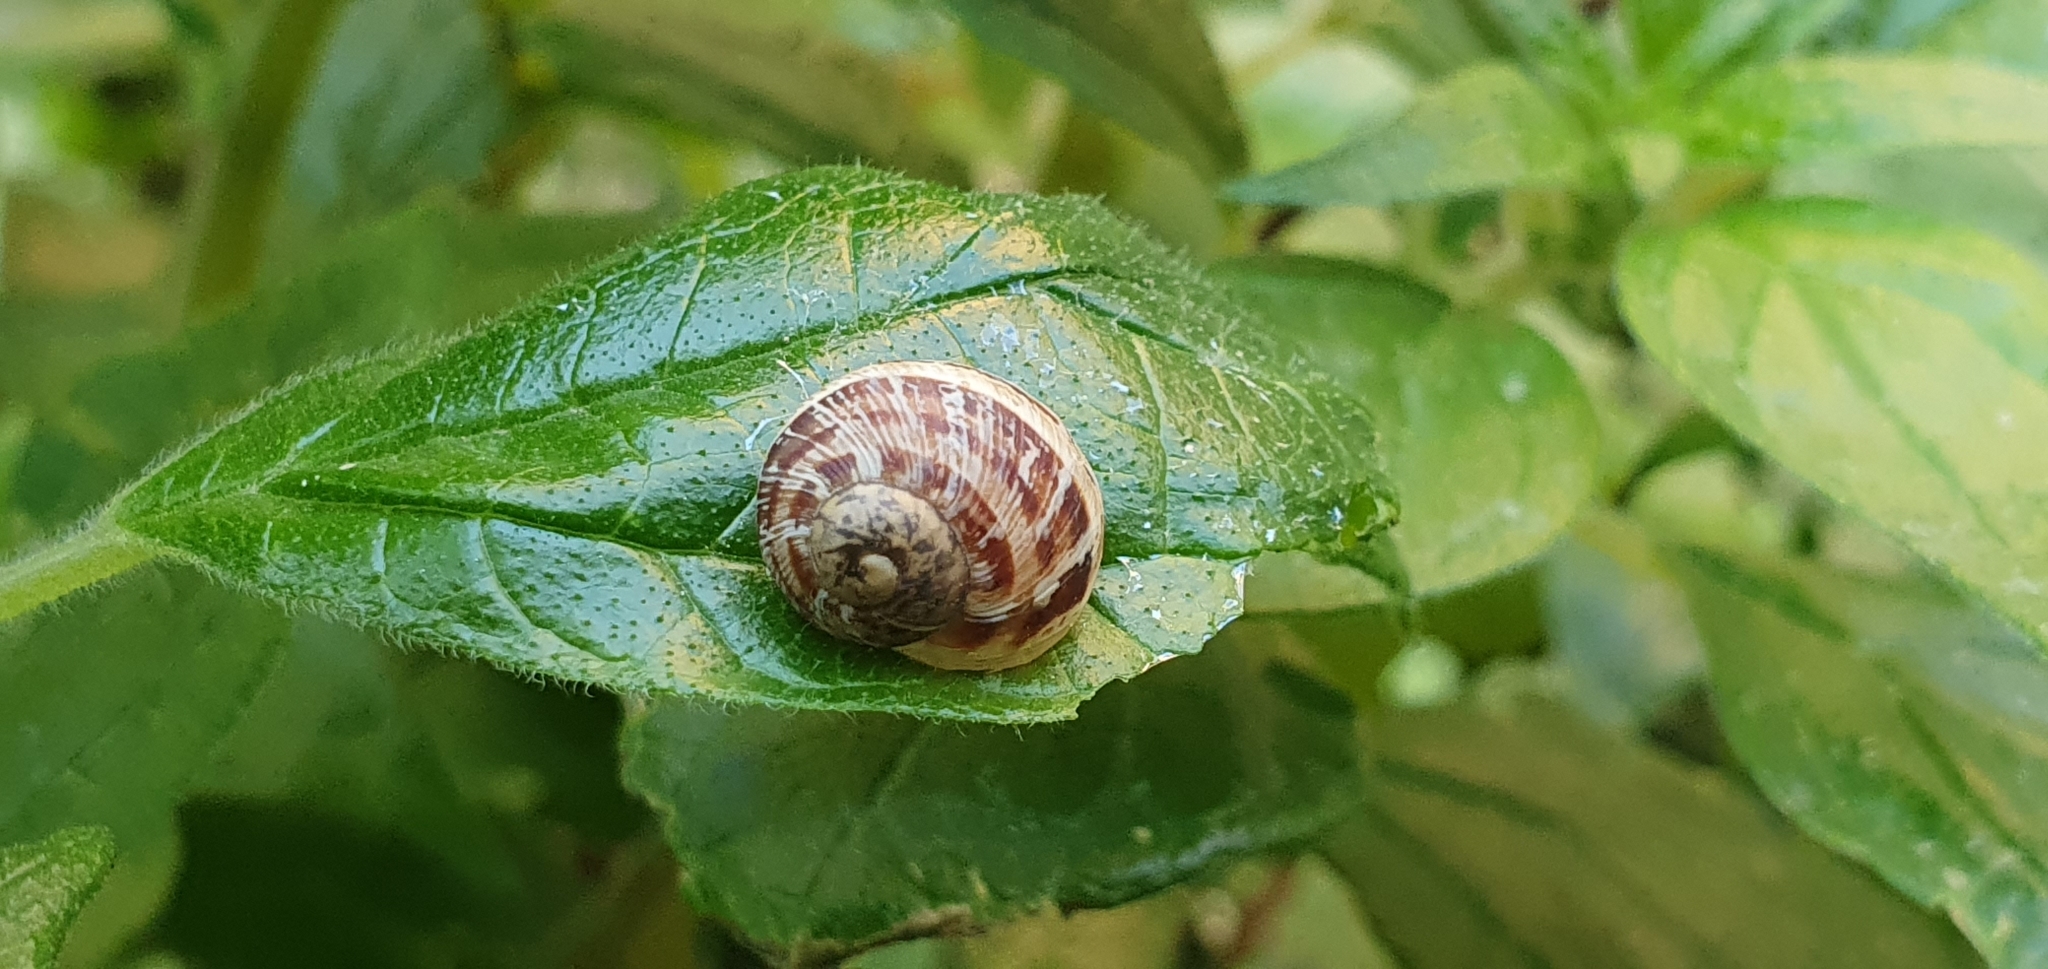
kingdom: Animalia
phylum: Mollusca
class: Gastropoda
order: Stylommatophora
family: Helicidae
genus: Cornu
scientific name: Cornu aspersum
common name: Brown garden snail
